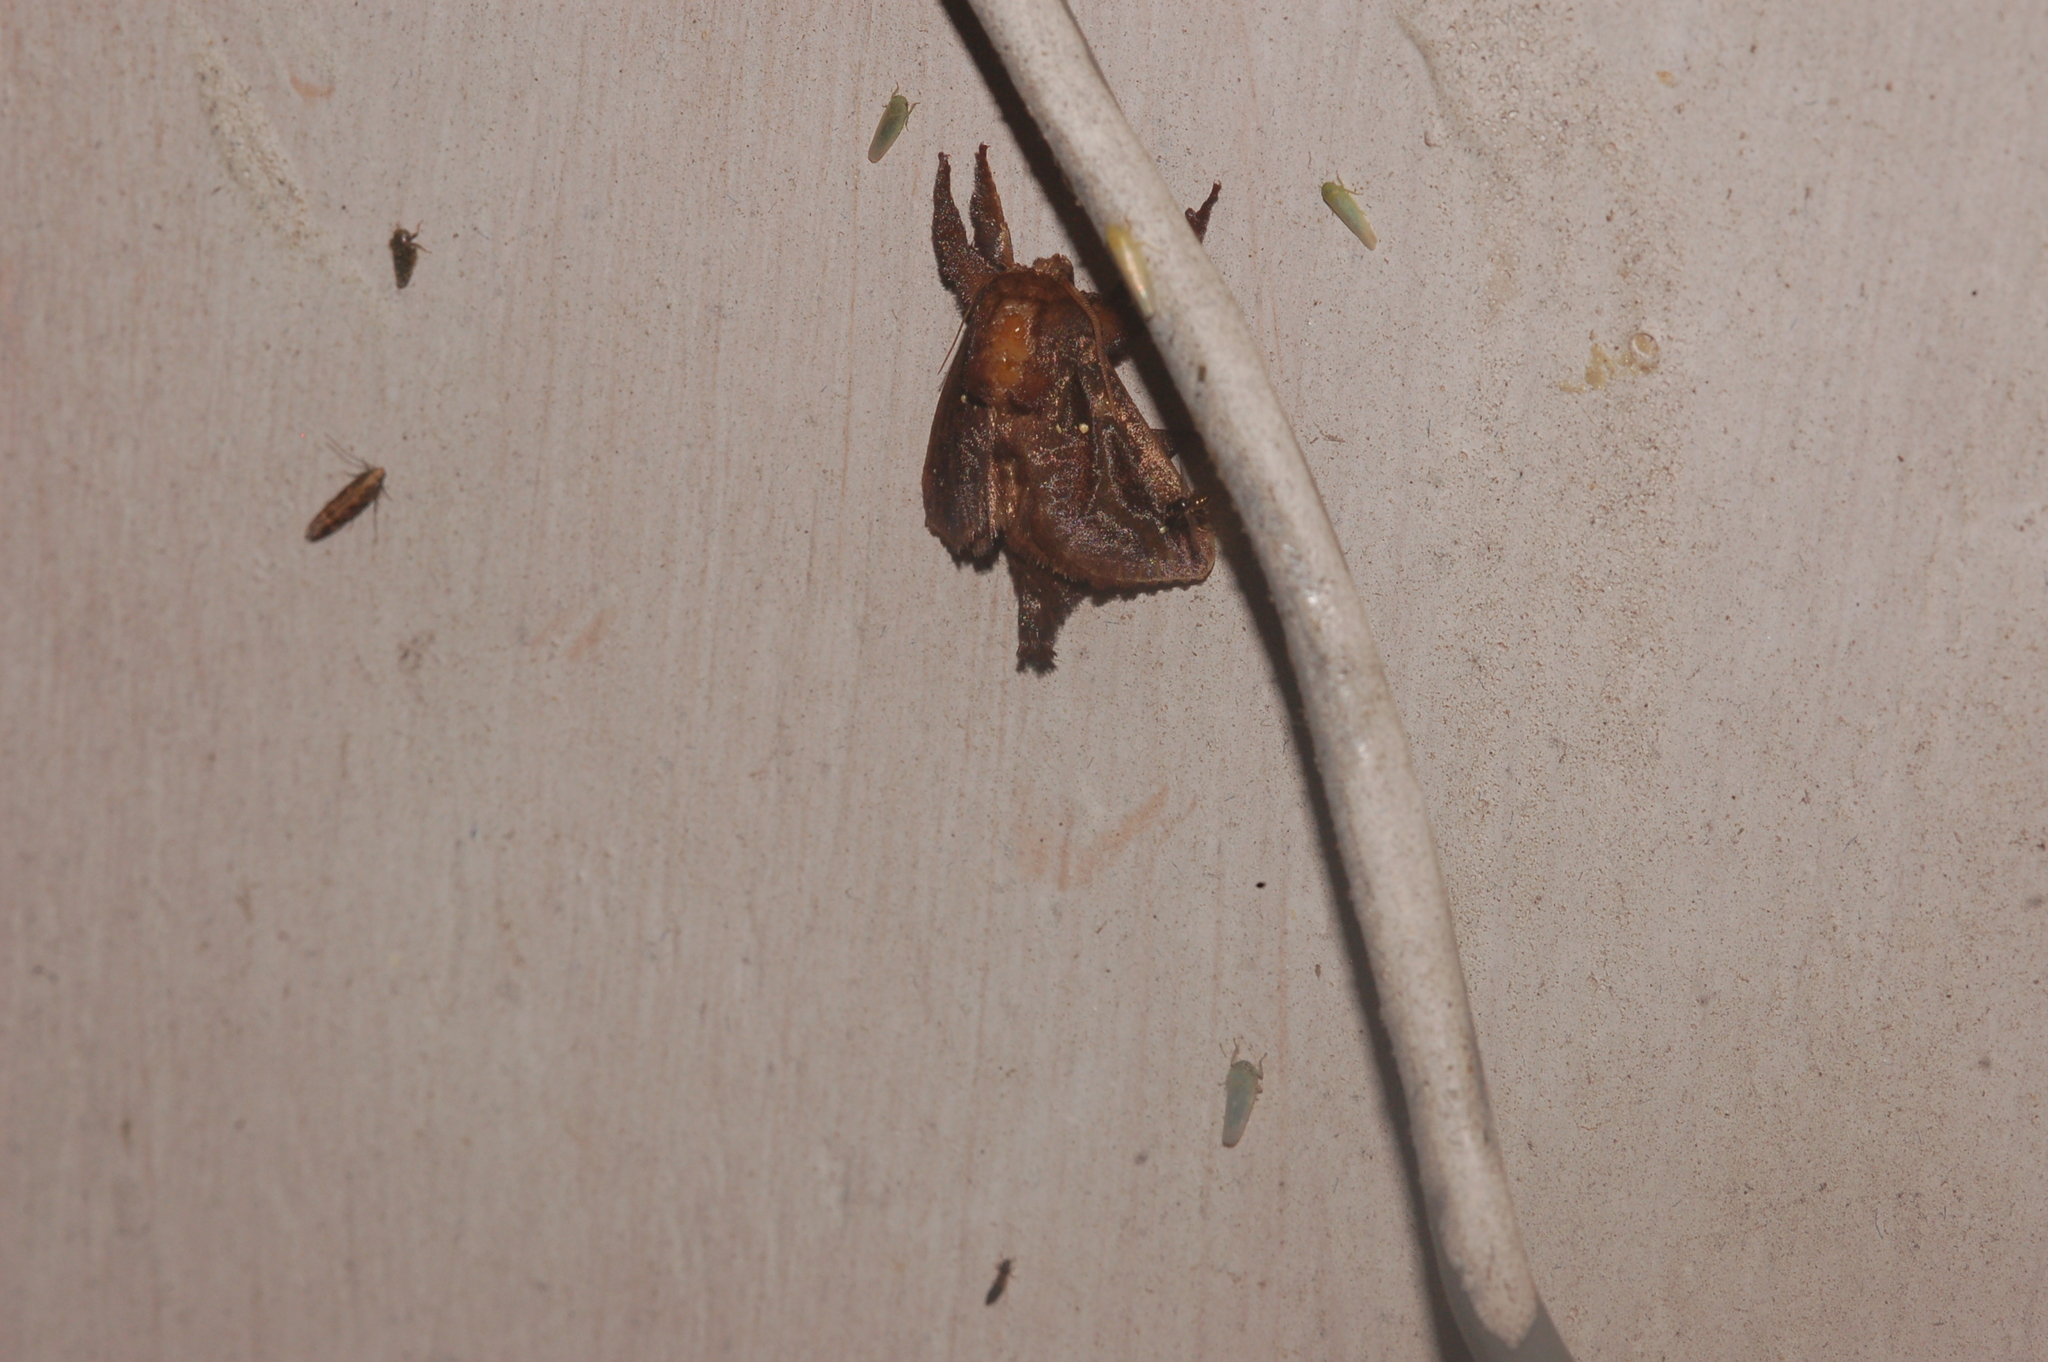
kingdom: Animalia
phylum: Arthropoda
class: Insecta
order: Lepidoptera
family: Limacodidae
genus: Acharia
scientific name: Acharia stimulea
